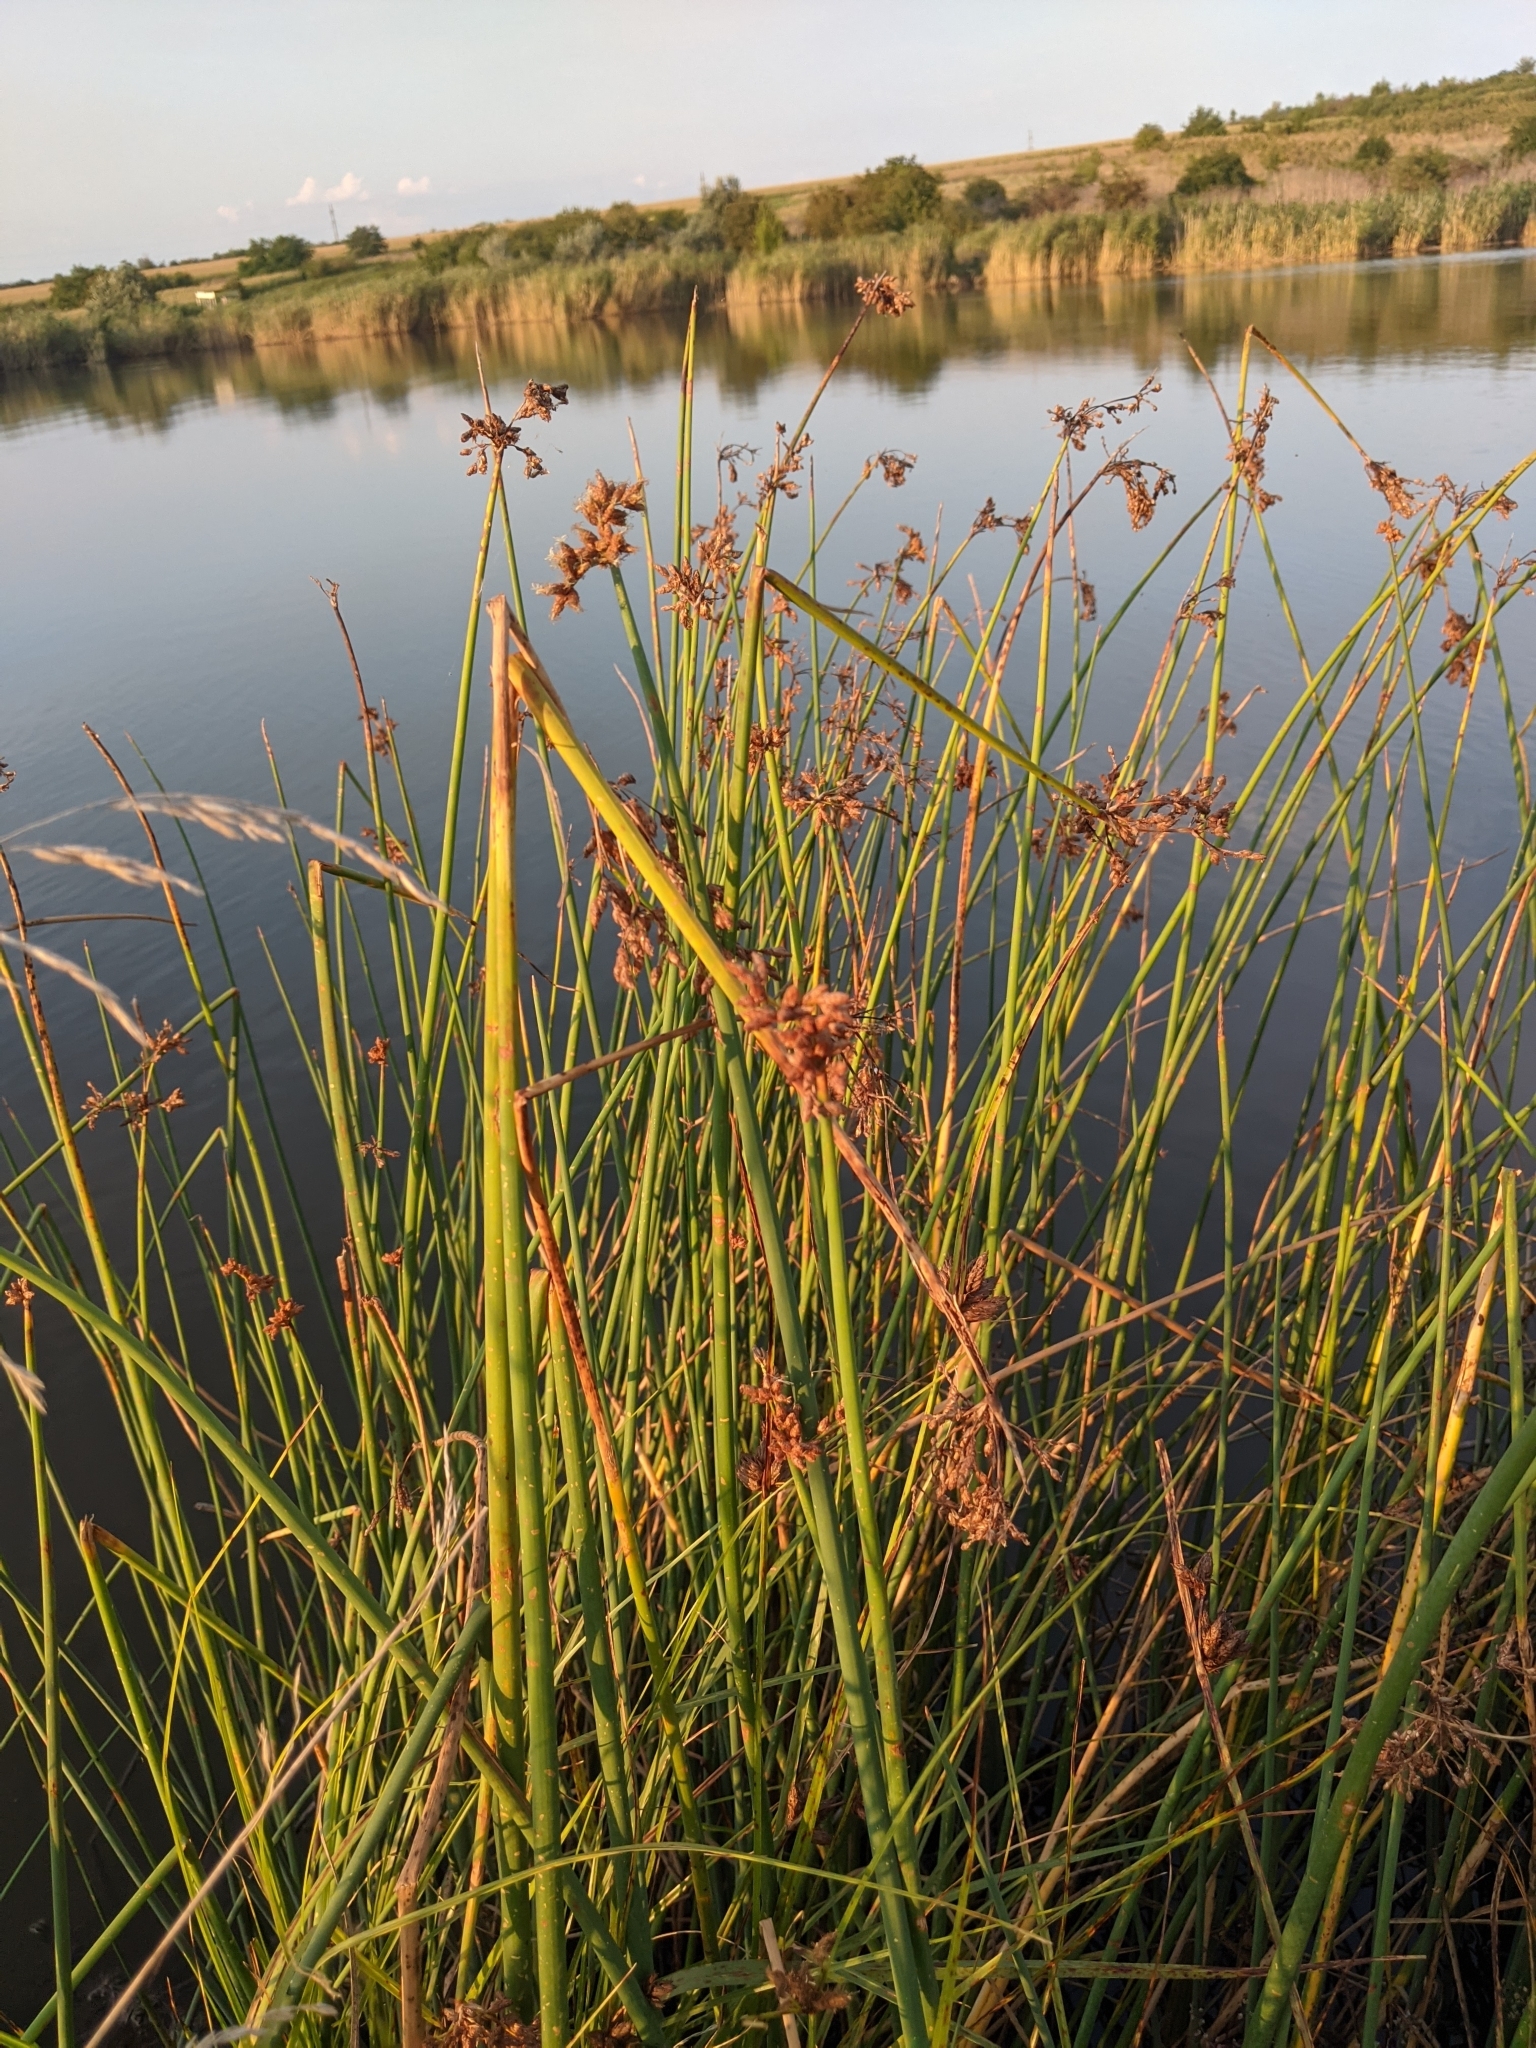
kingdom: Plantae
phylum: Tracheophyta
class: Liliopsida
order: Poales
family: Cyperaceae
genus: Schoenoplectus
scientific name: Schoenoplectus lacustris
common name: Common club-rush
